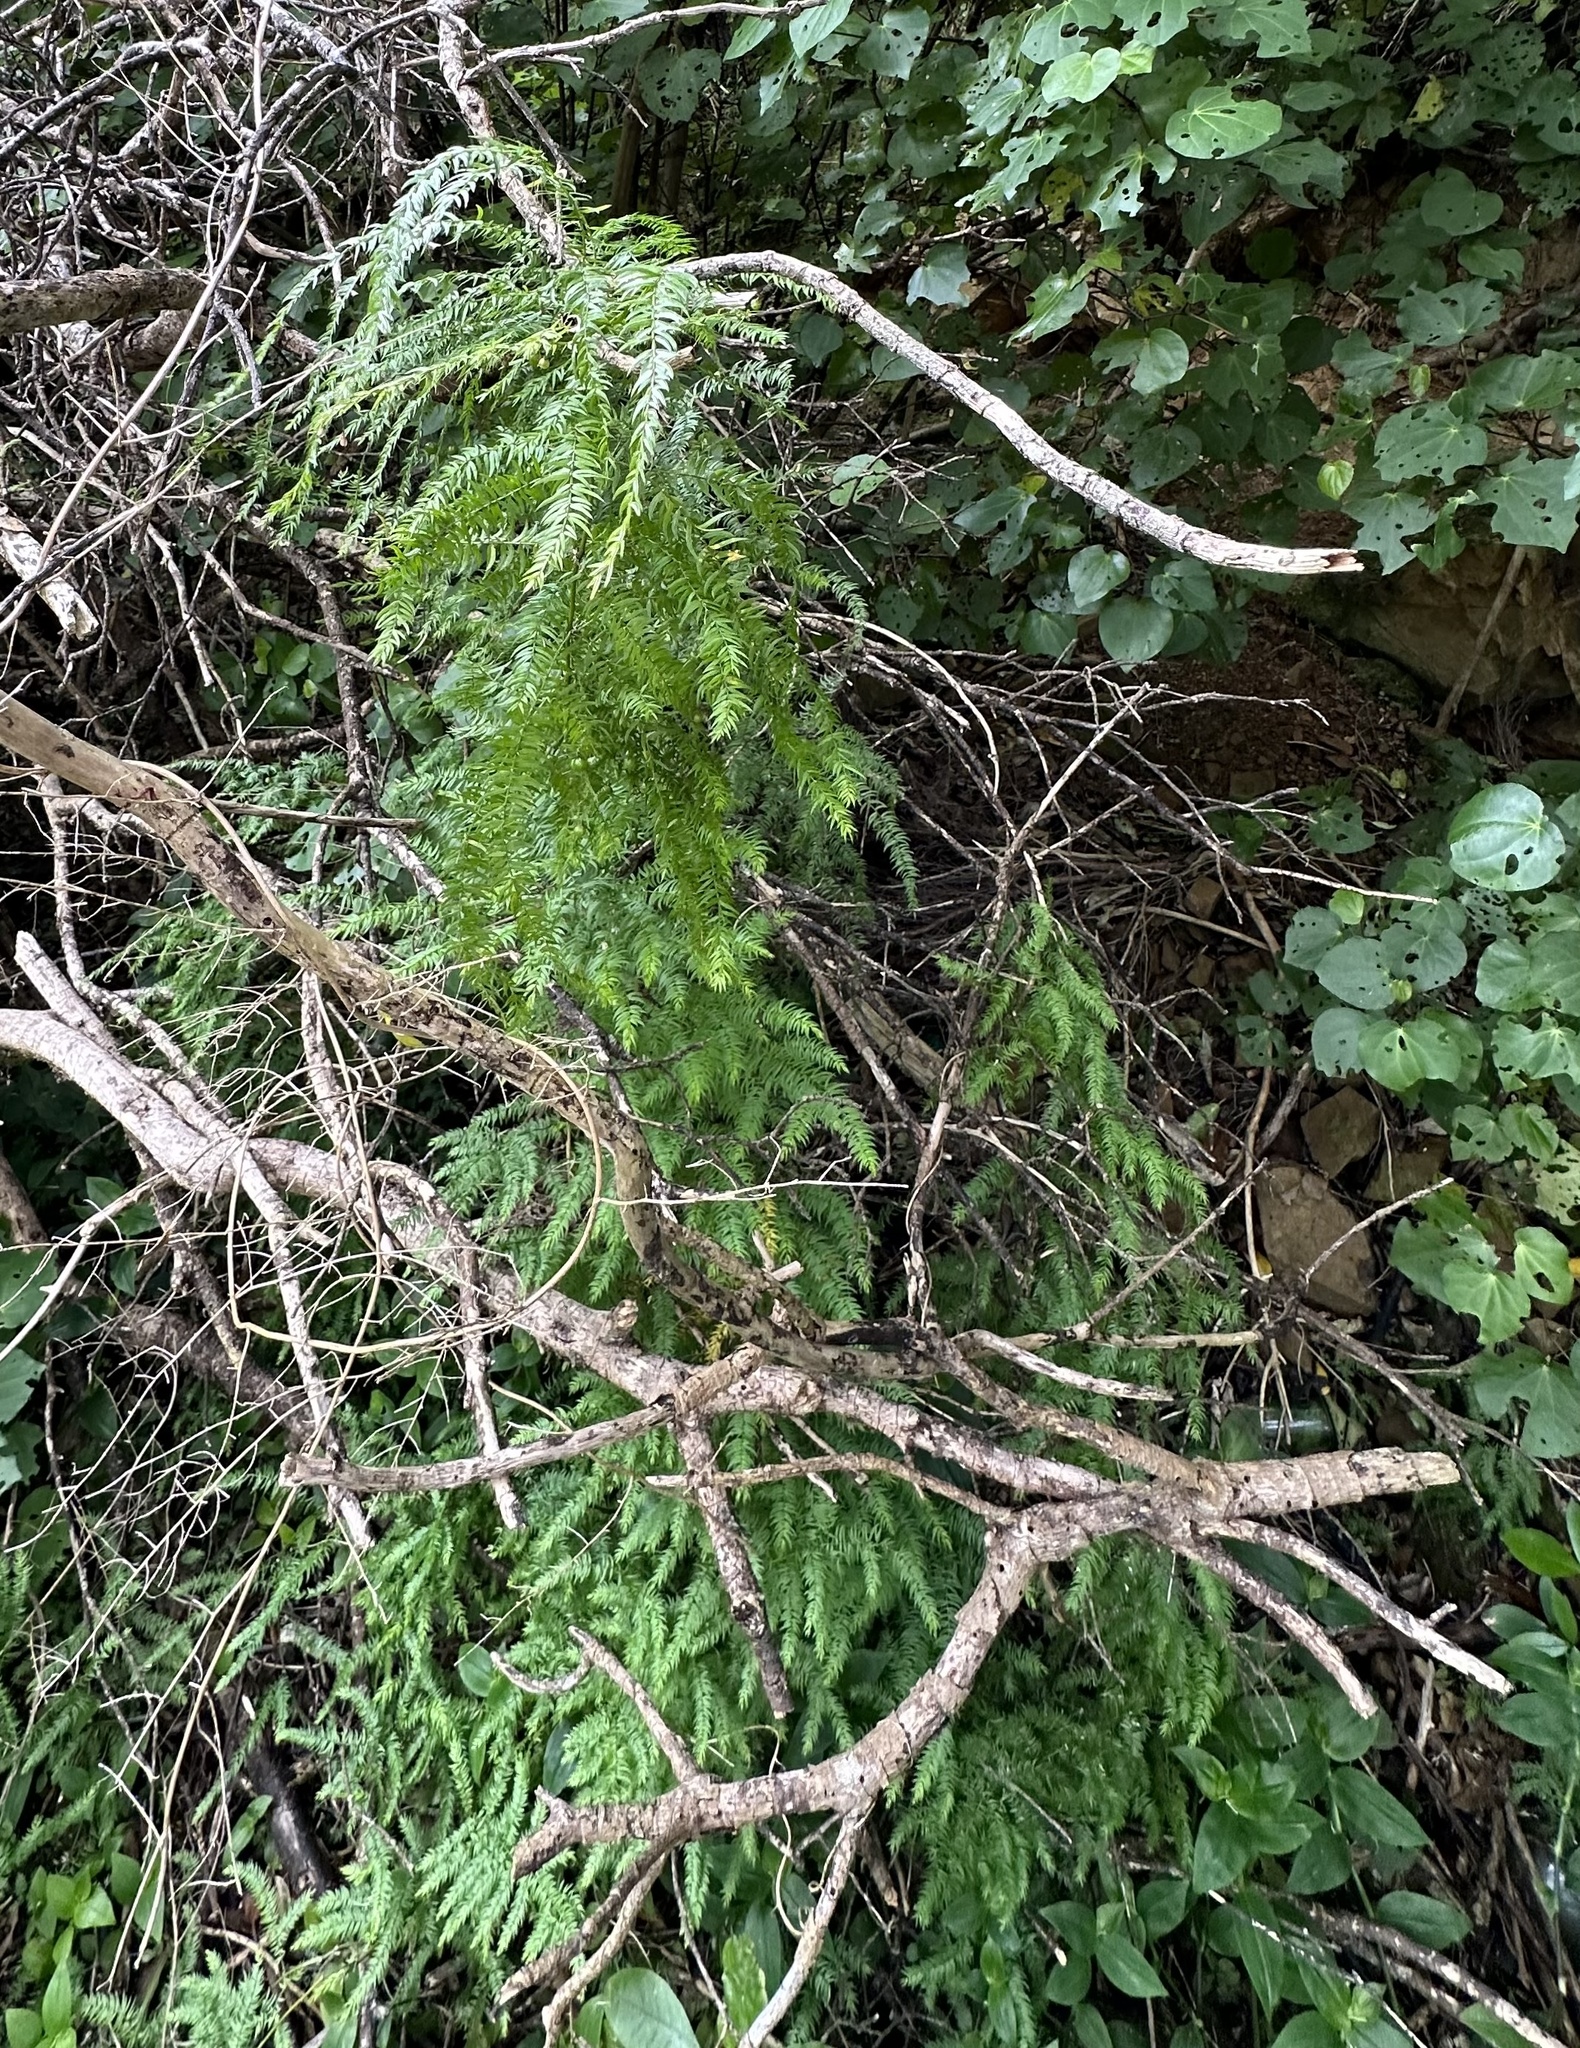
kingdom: Plantae
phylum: Tracheophyta
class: Liliopsida
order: Asparagales
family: Asparagaceae
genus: Asparagus
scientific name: Asparagus scandens
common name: Asparagus-fern
